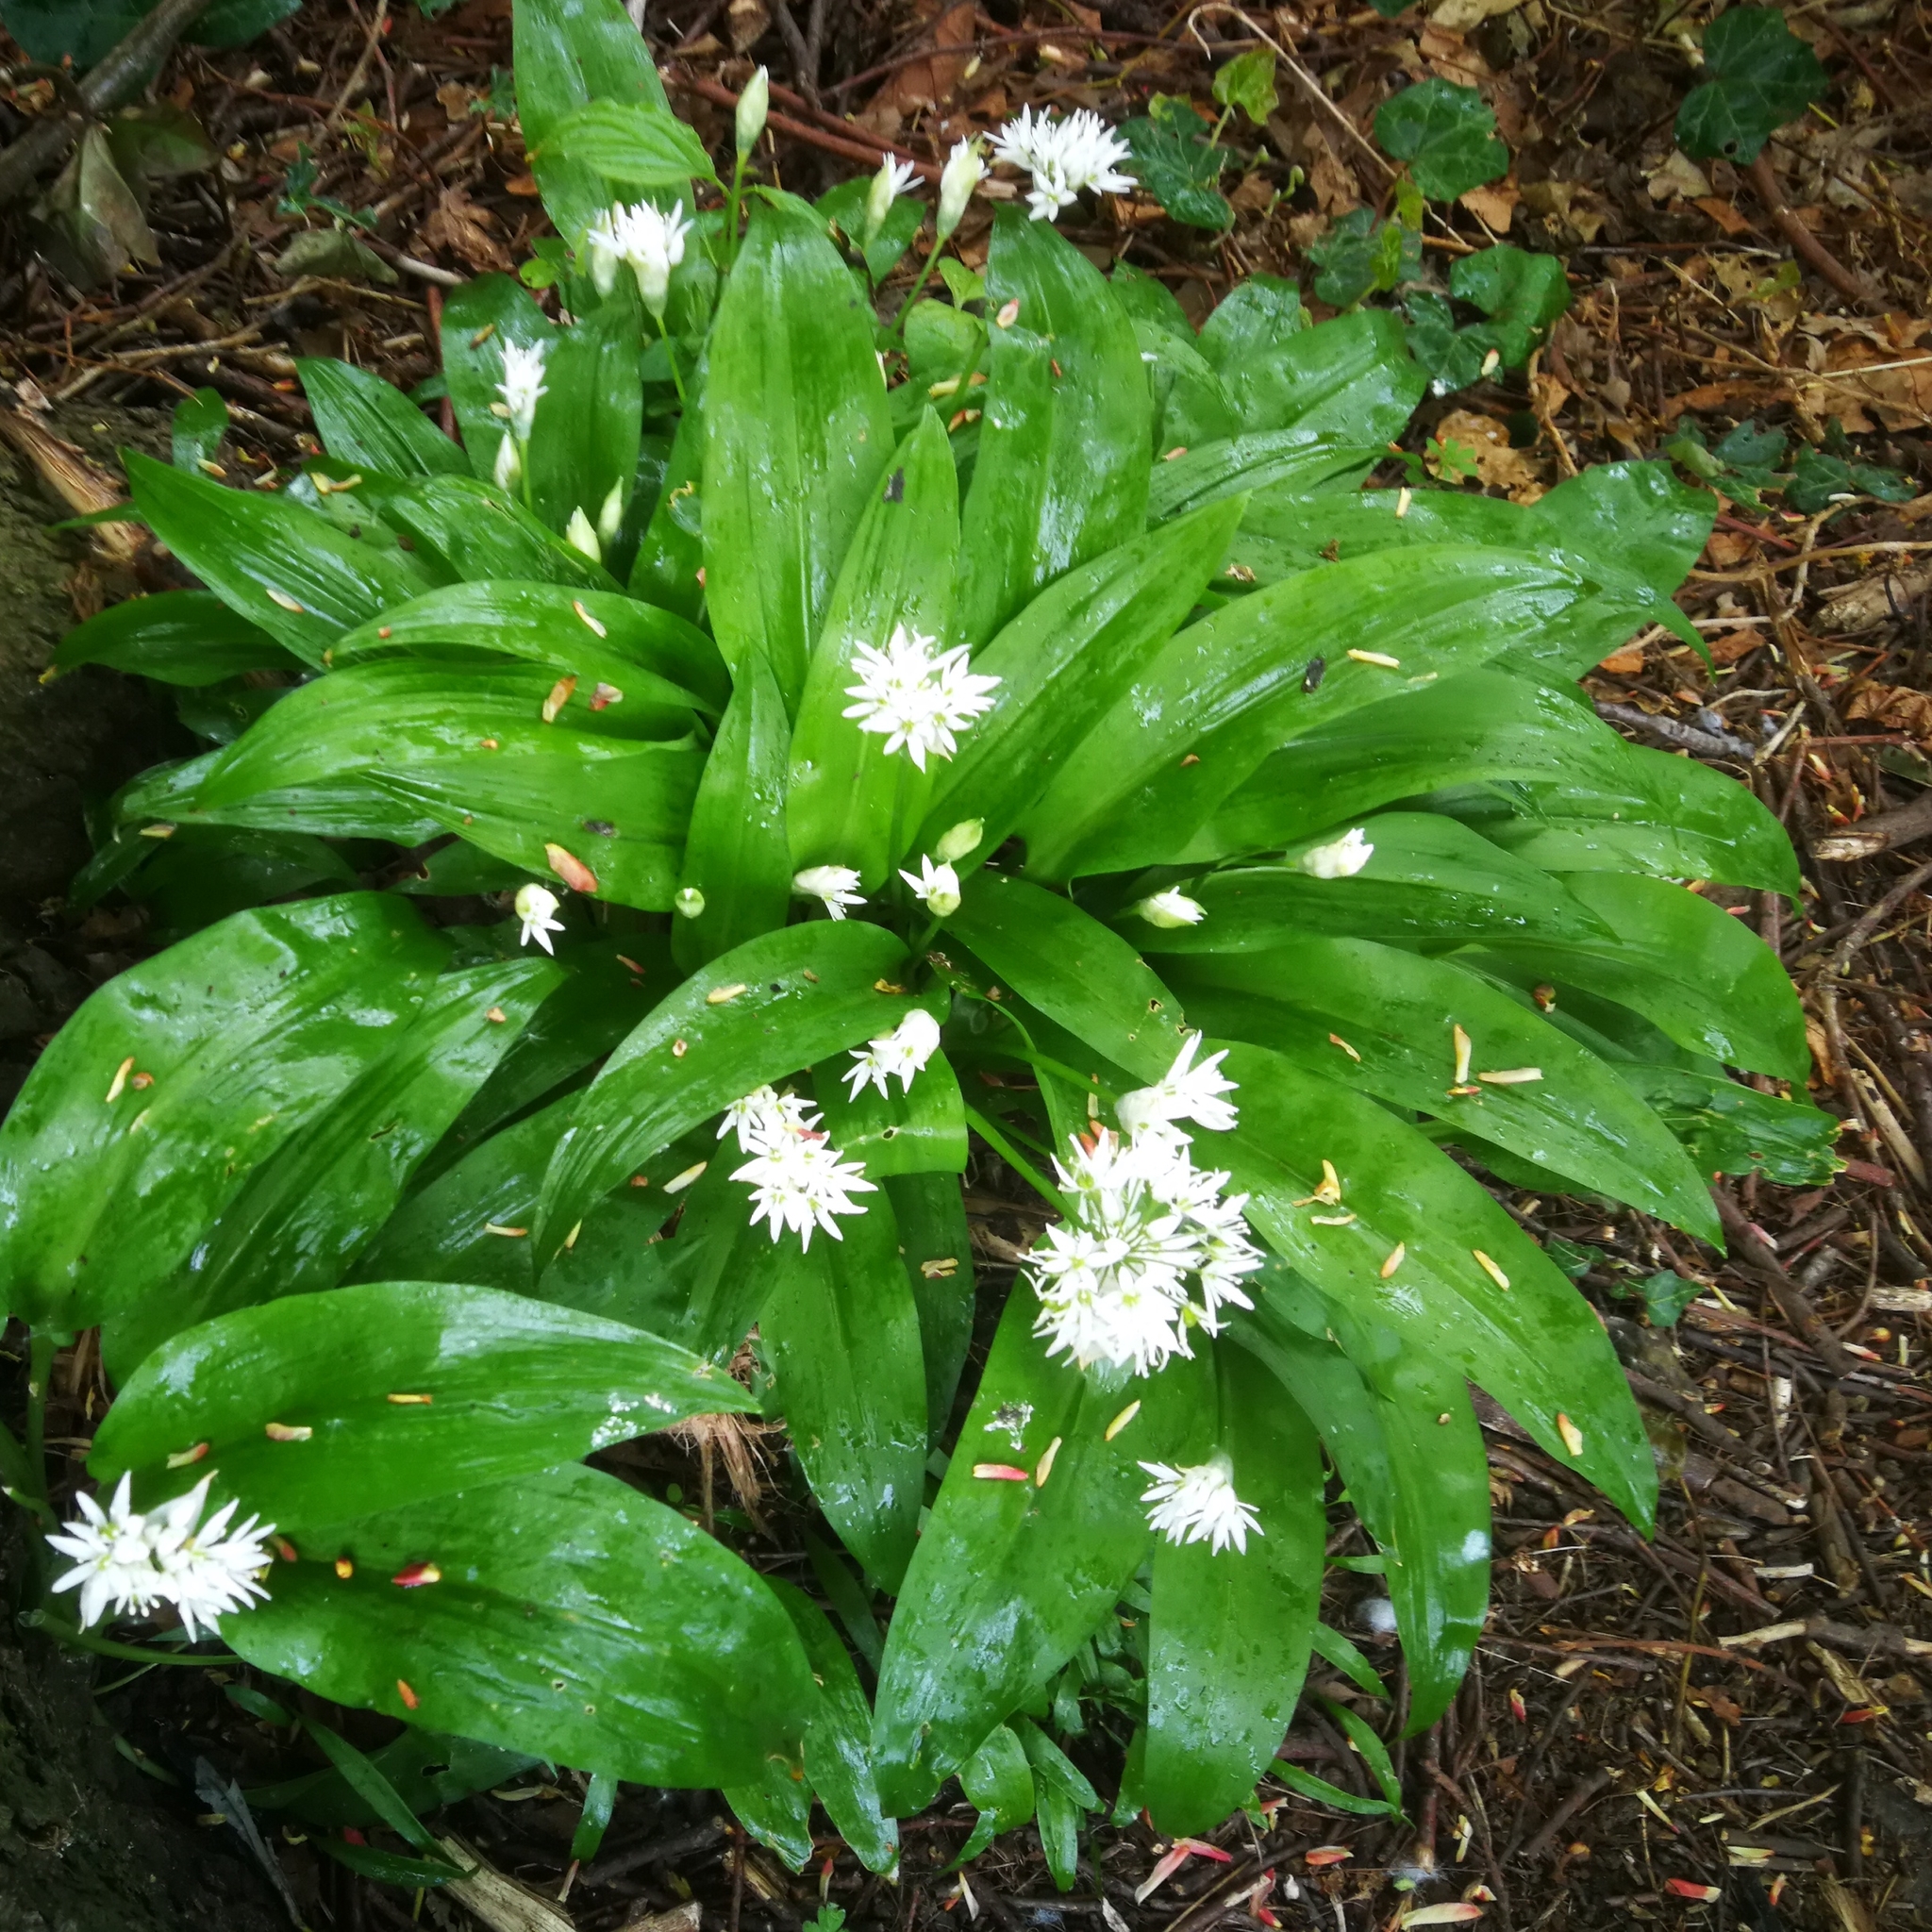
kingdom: Plantae
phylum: Tracheophyta
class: Liliopsida
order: Asparagales
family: Amaryllidaceae
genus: Allium
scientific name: Allium ursinum
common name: Ramsons
